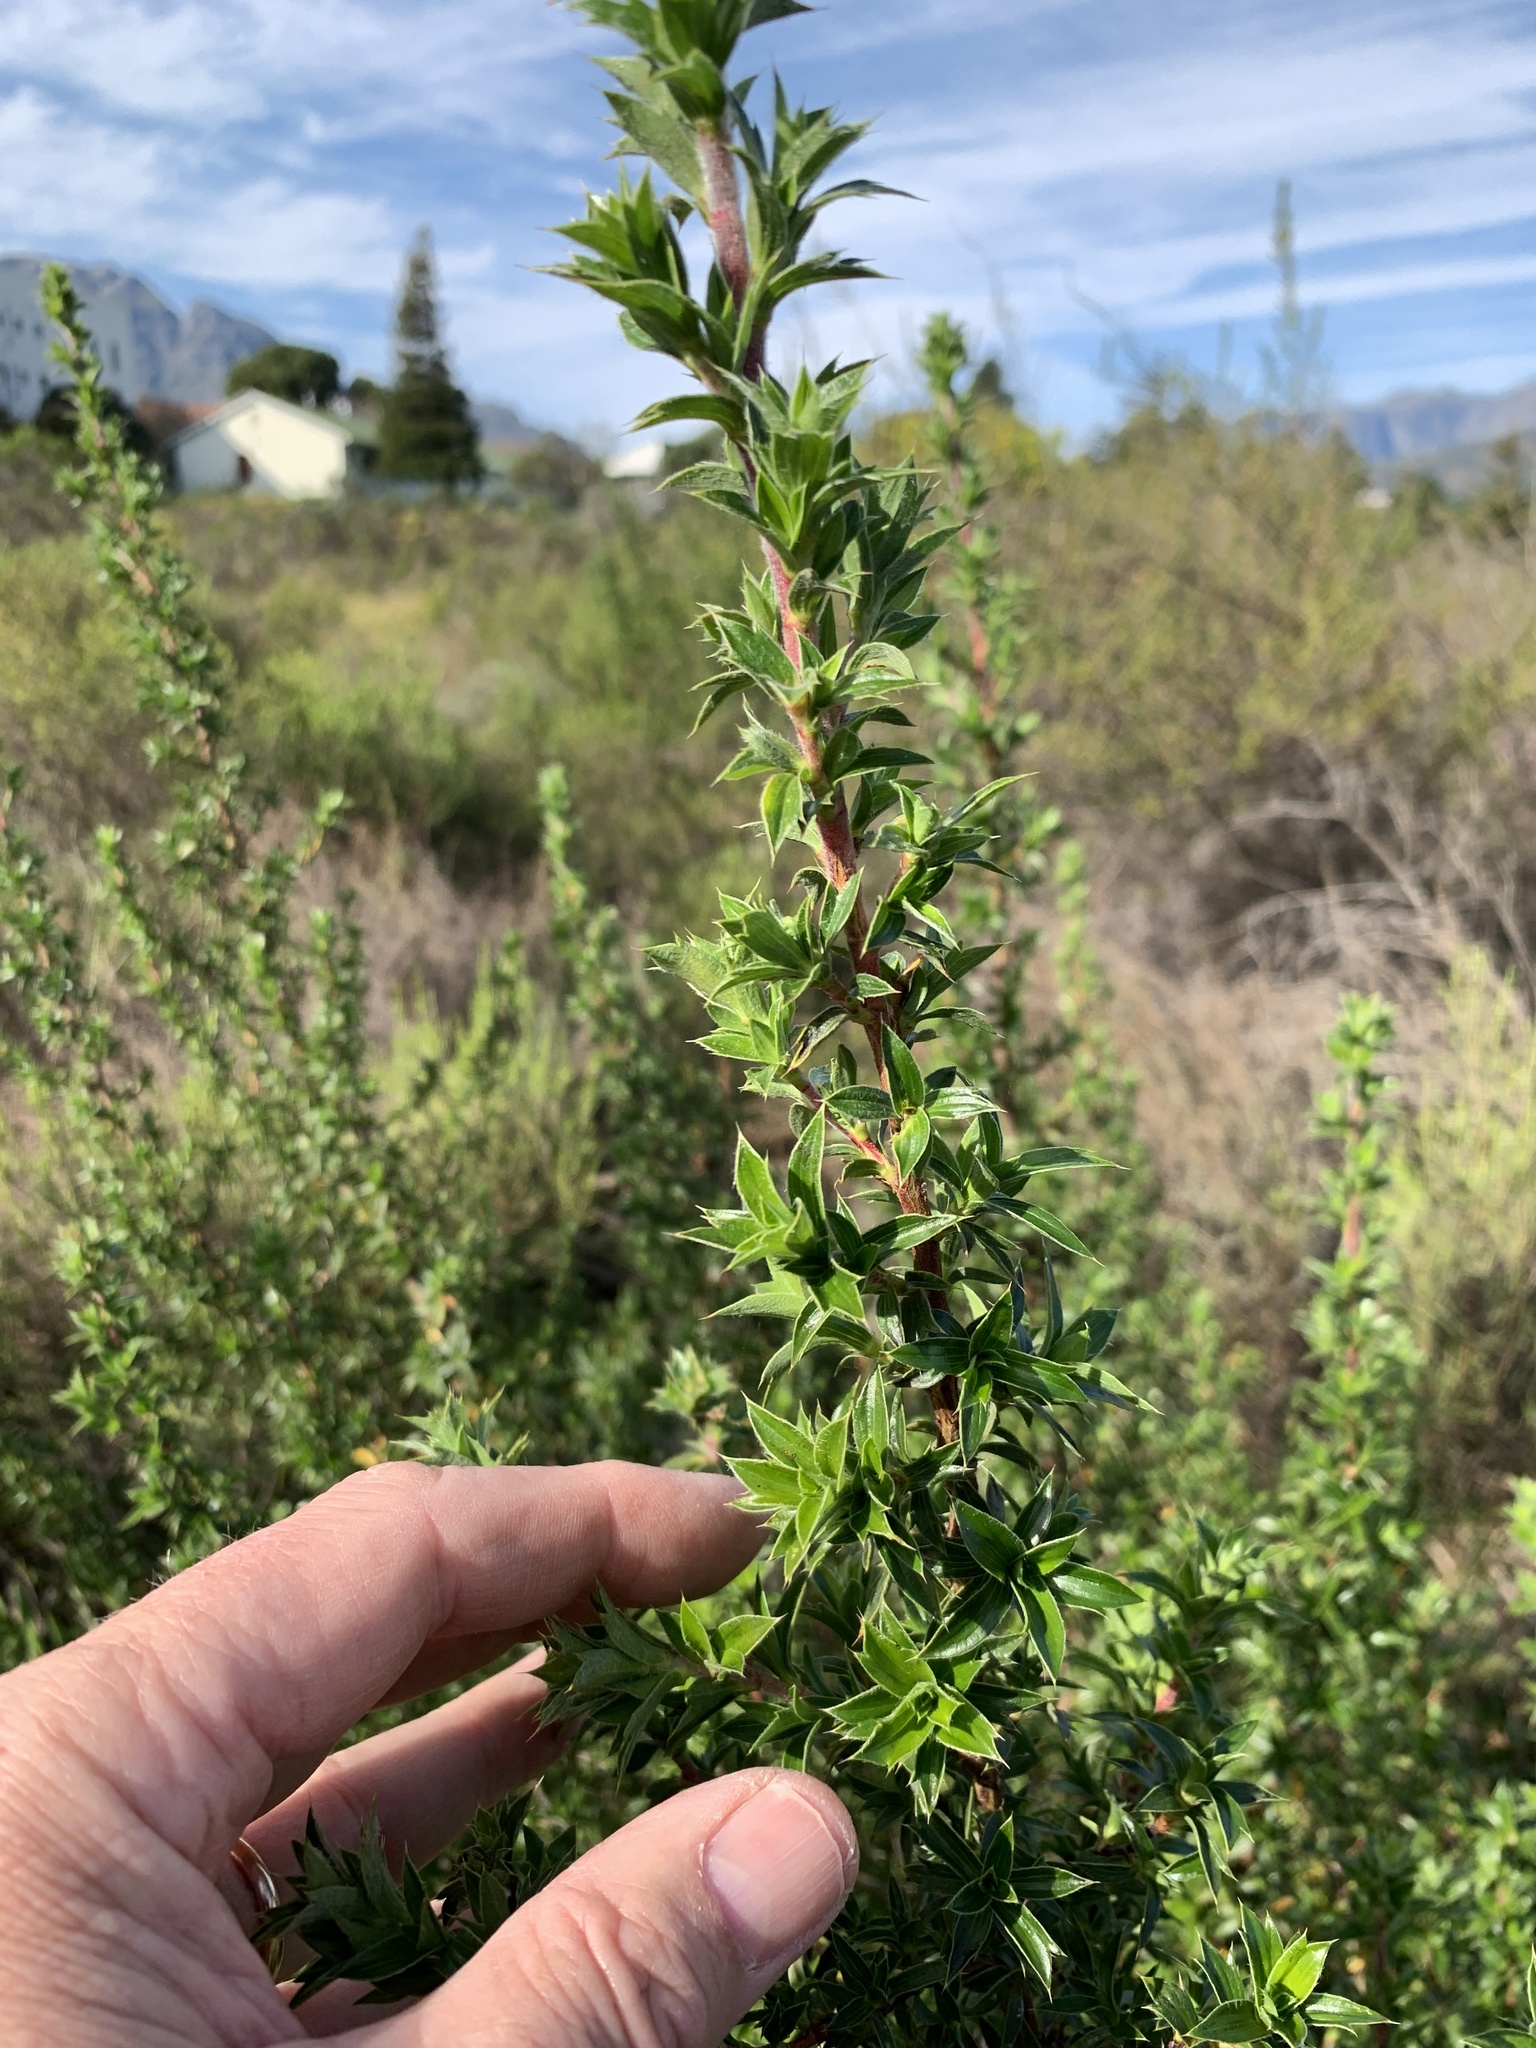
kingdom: Plantae
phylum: Tracheophyta
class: Magnoliopsida
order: Rosales
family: Rosaceae
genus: Cliffortia
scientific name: Cliffortia ruscifolia
